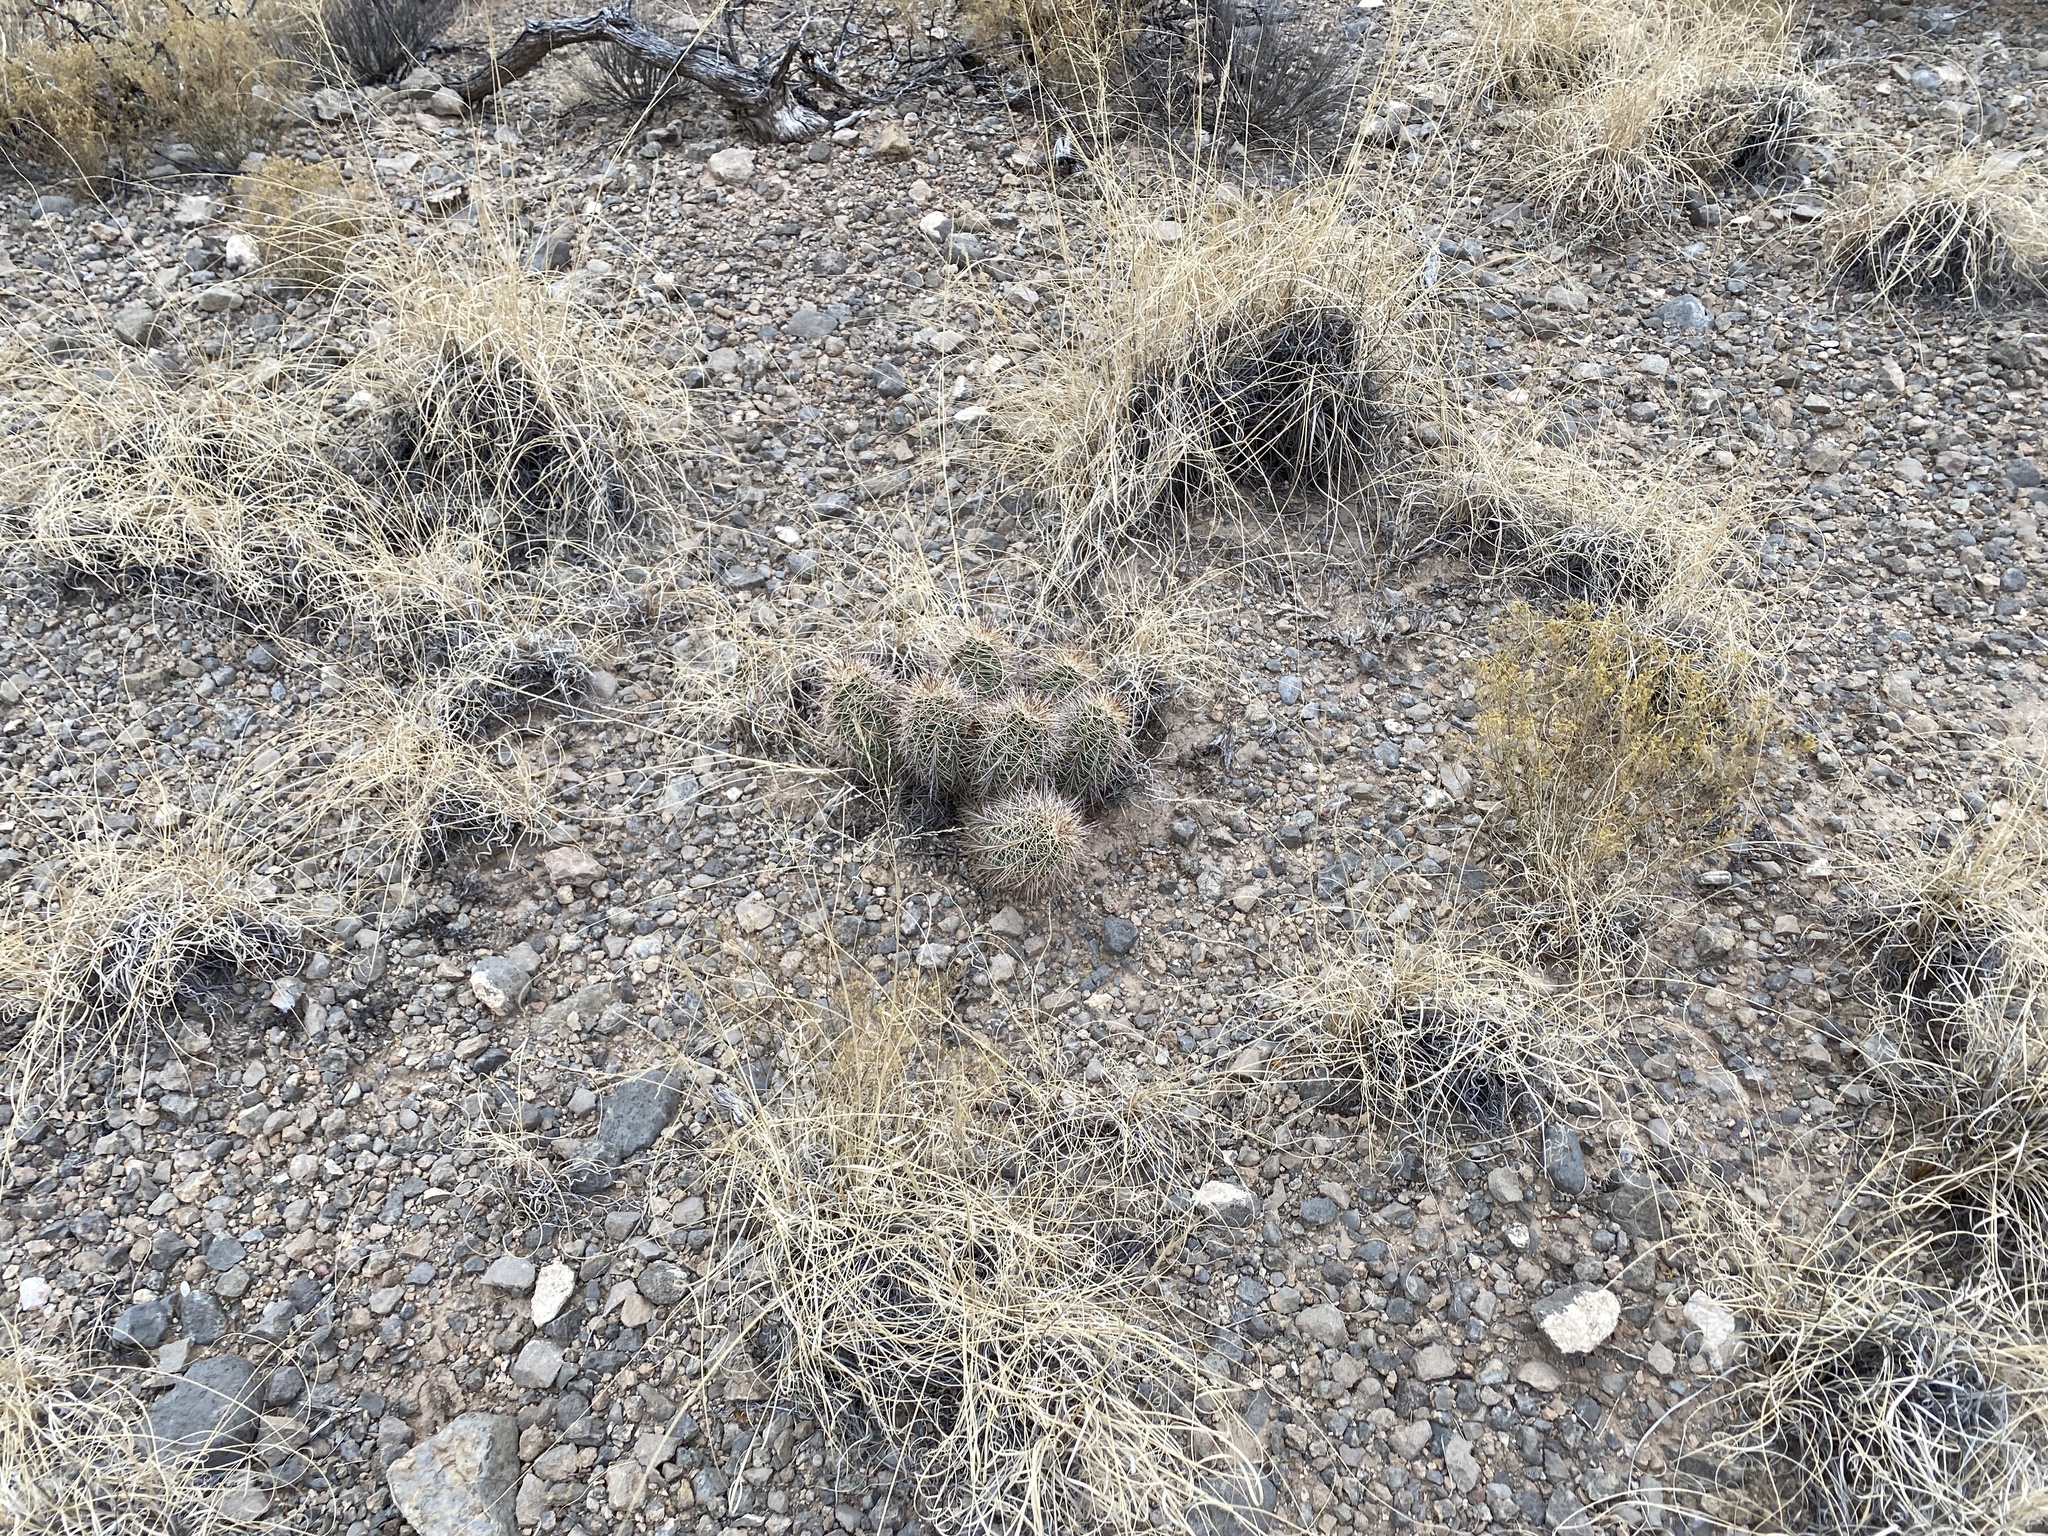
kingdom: Plantae
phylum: Tracheophyta
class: Magnoliopsida
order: Caryophyllales
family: Cactaceae
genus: Echinocereus
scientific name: Echinocereus coccineus
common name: Scarlet hedgehog cactus
